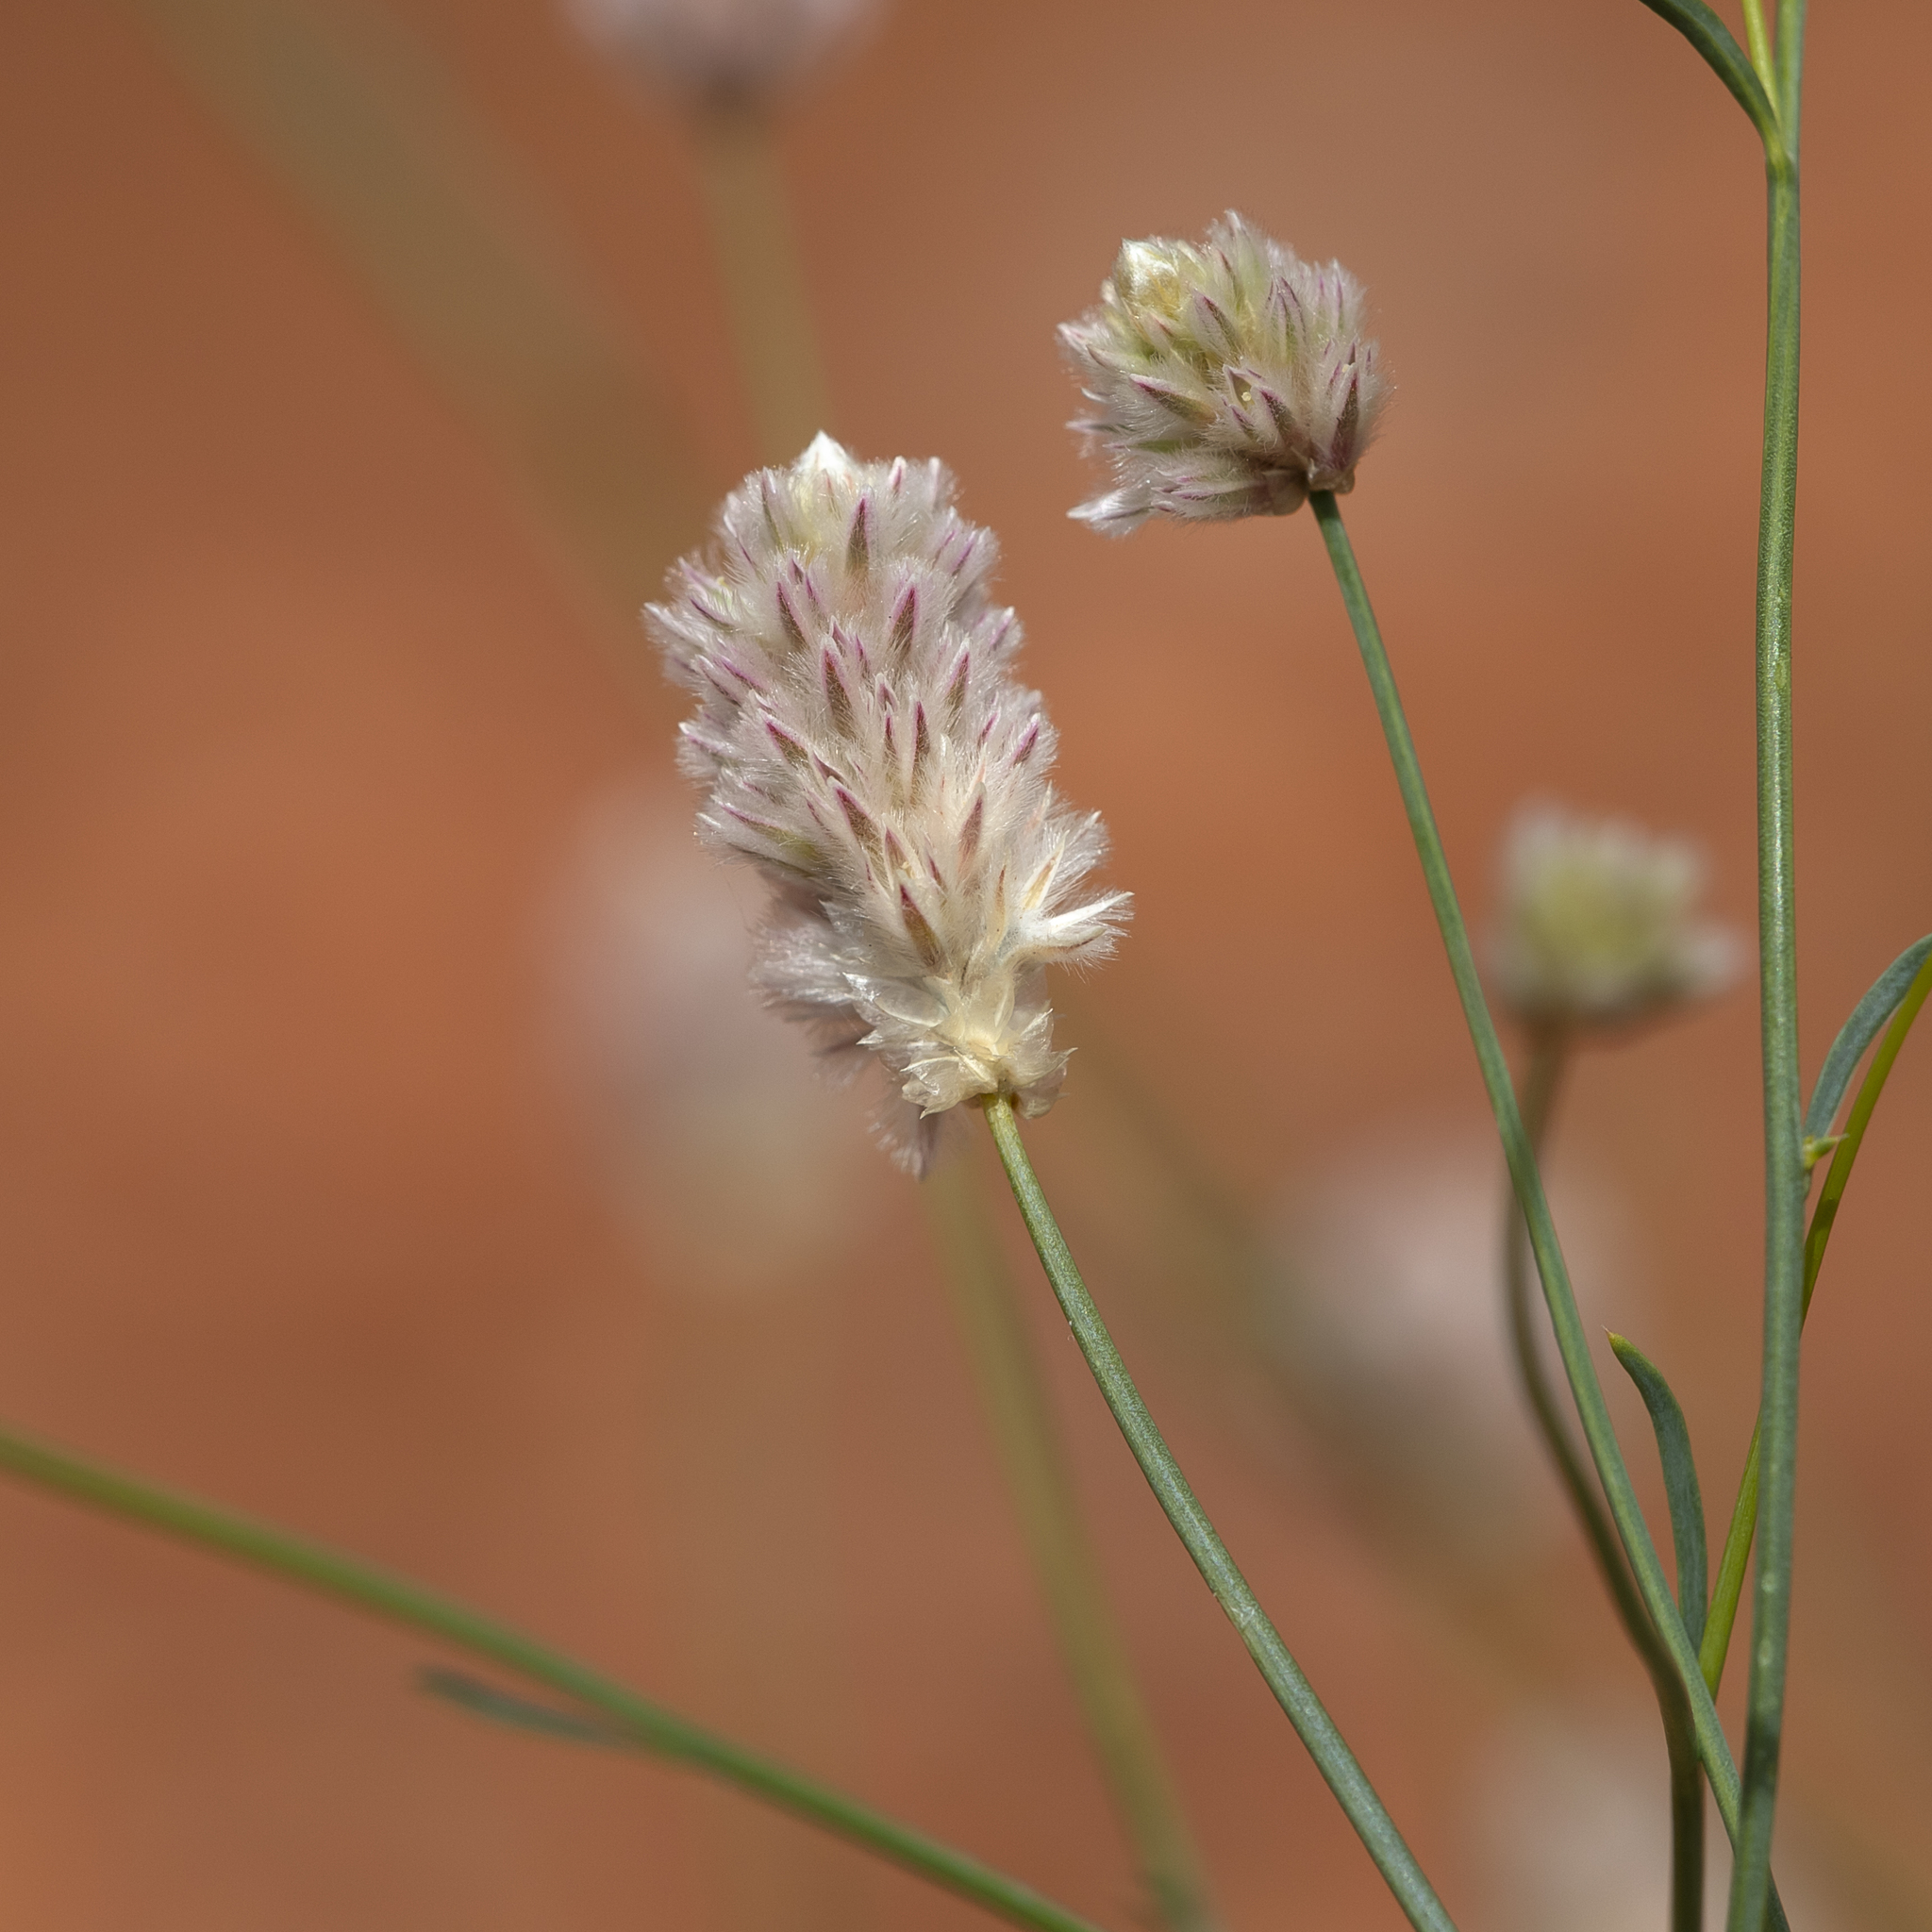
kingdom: Plantae
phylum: Tracheophyta
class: Magnoliopsida
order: Caryophyllales
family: Amaranthaceae
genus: Ptilotus
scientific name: Ptilotus schwartzii
